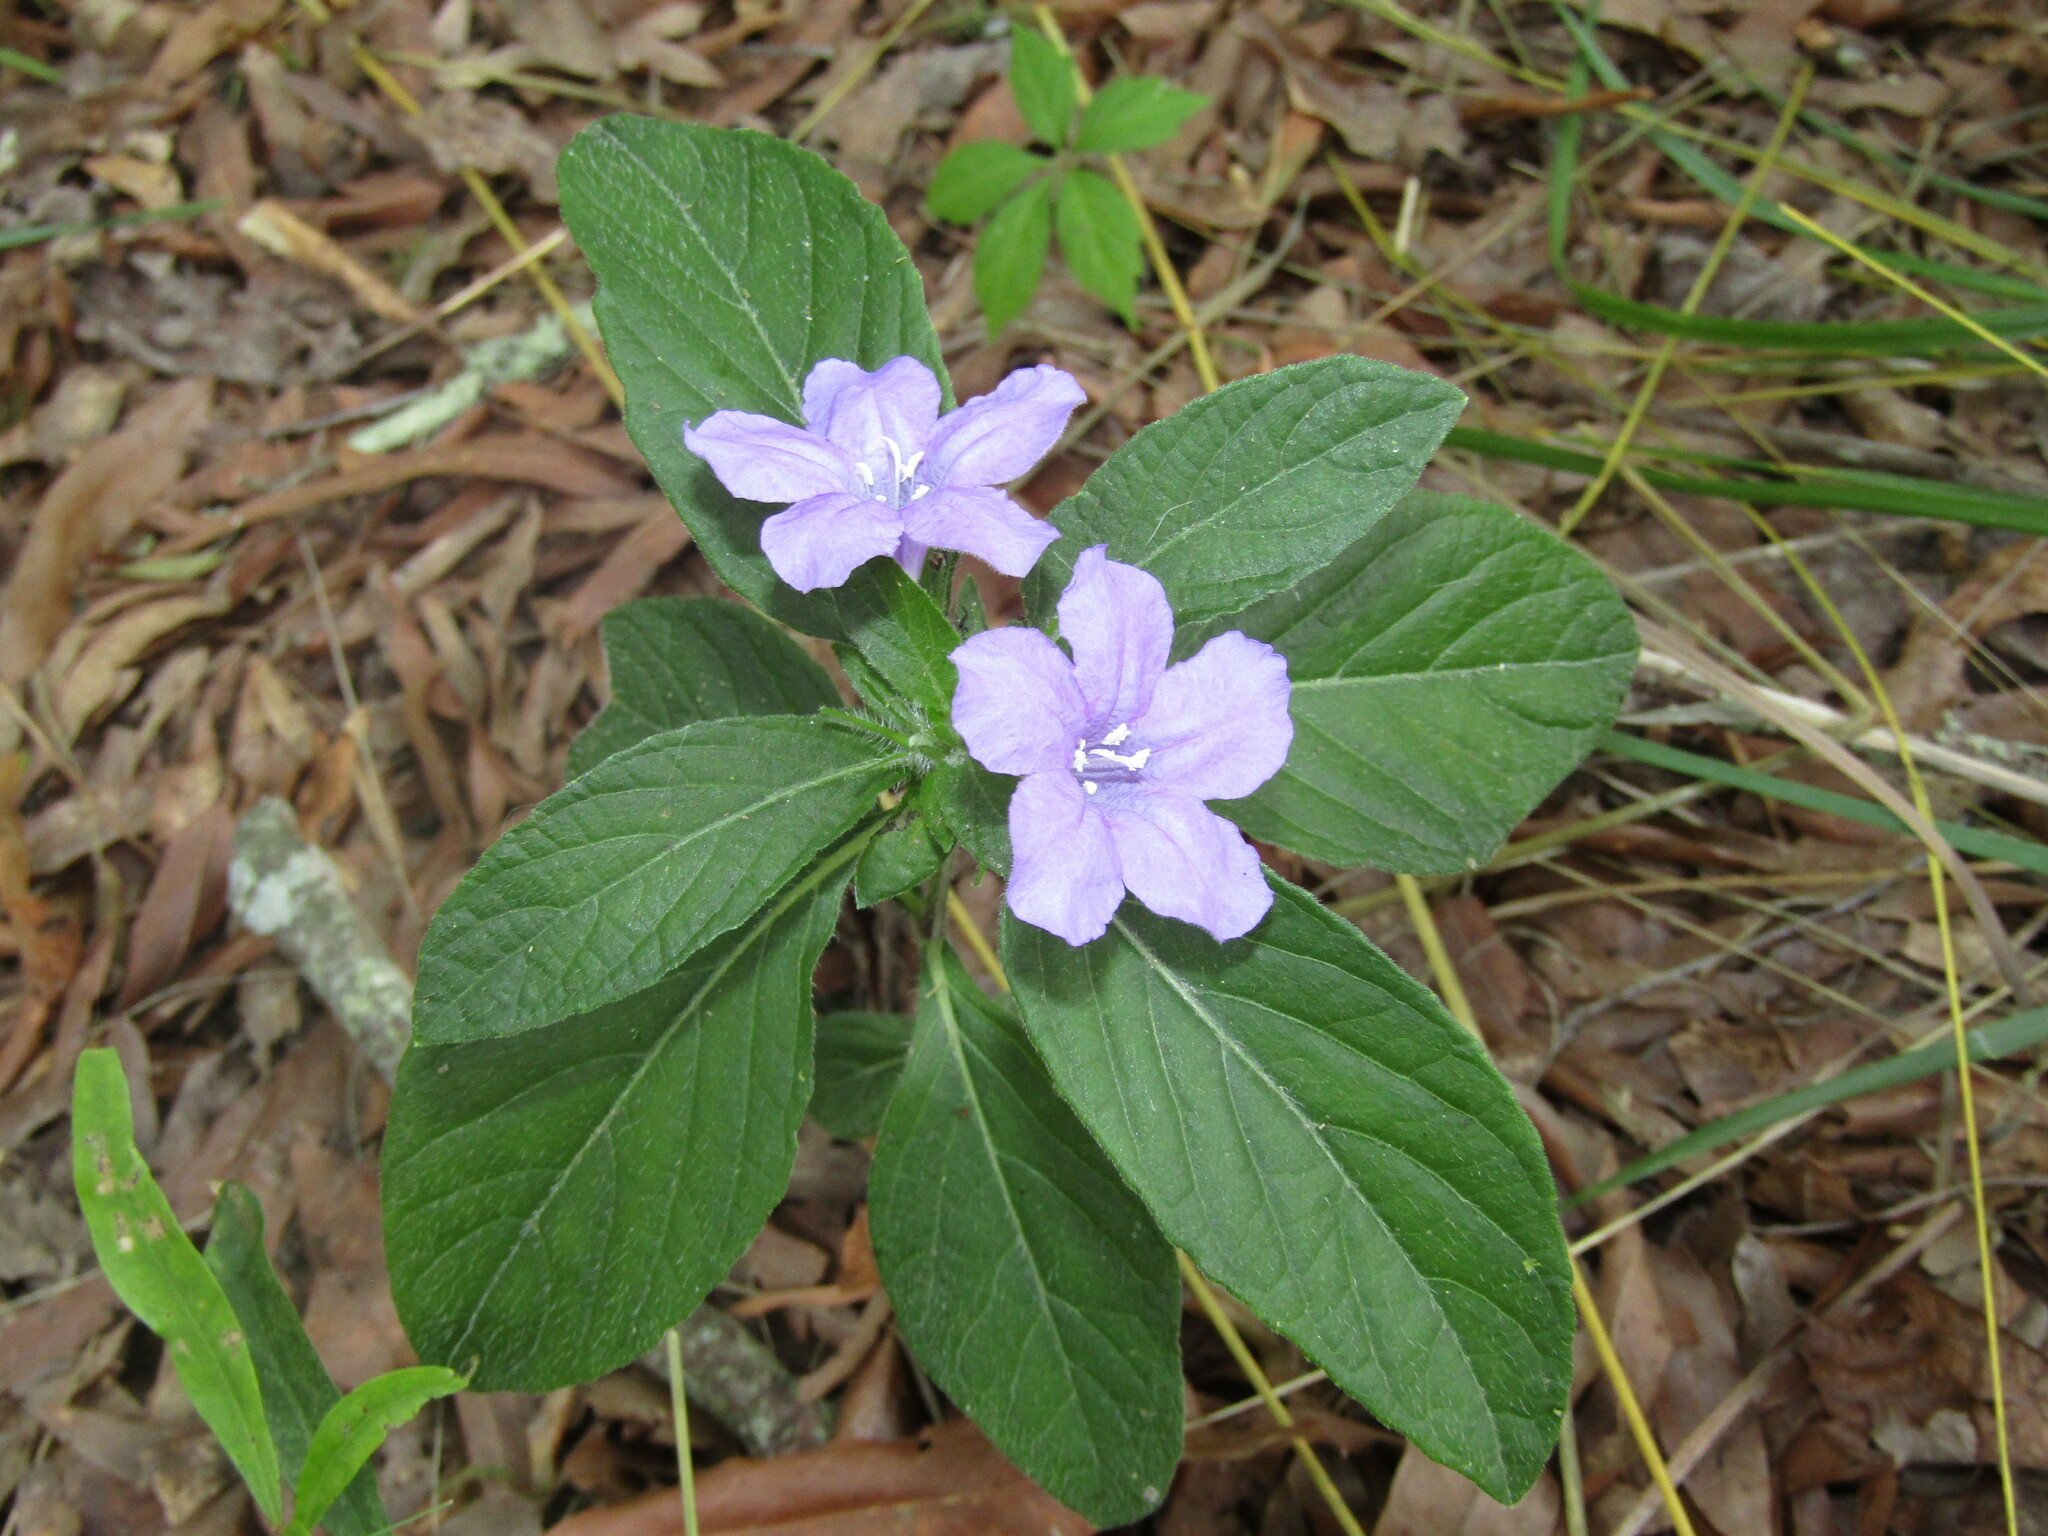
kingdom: Plantae
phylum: Tracheophyta
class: Magnoliopsida
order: Lamiales
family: Acanthaceae
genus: Ruellia
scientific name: Ruellia caroliniensis
